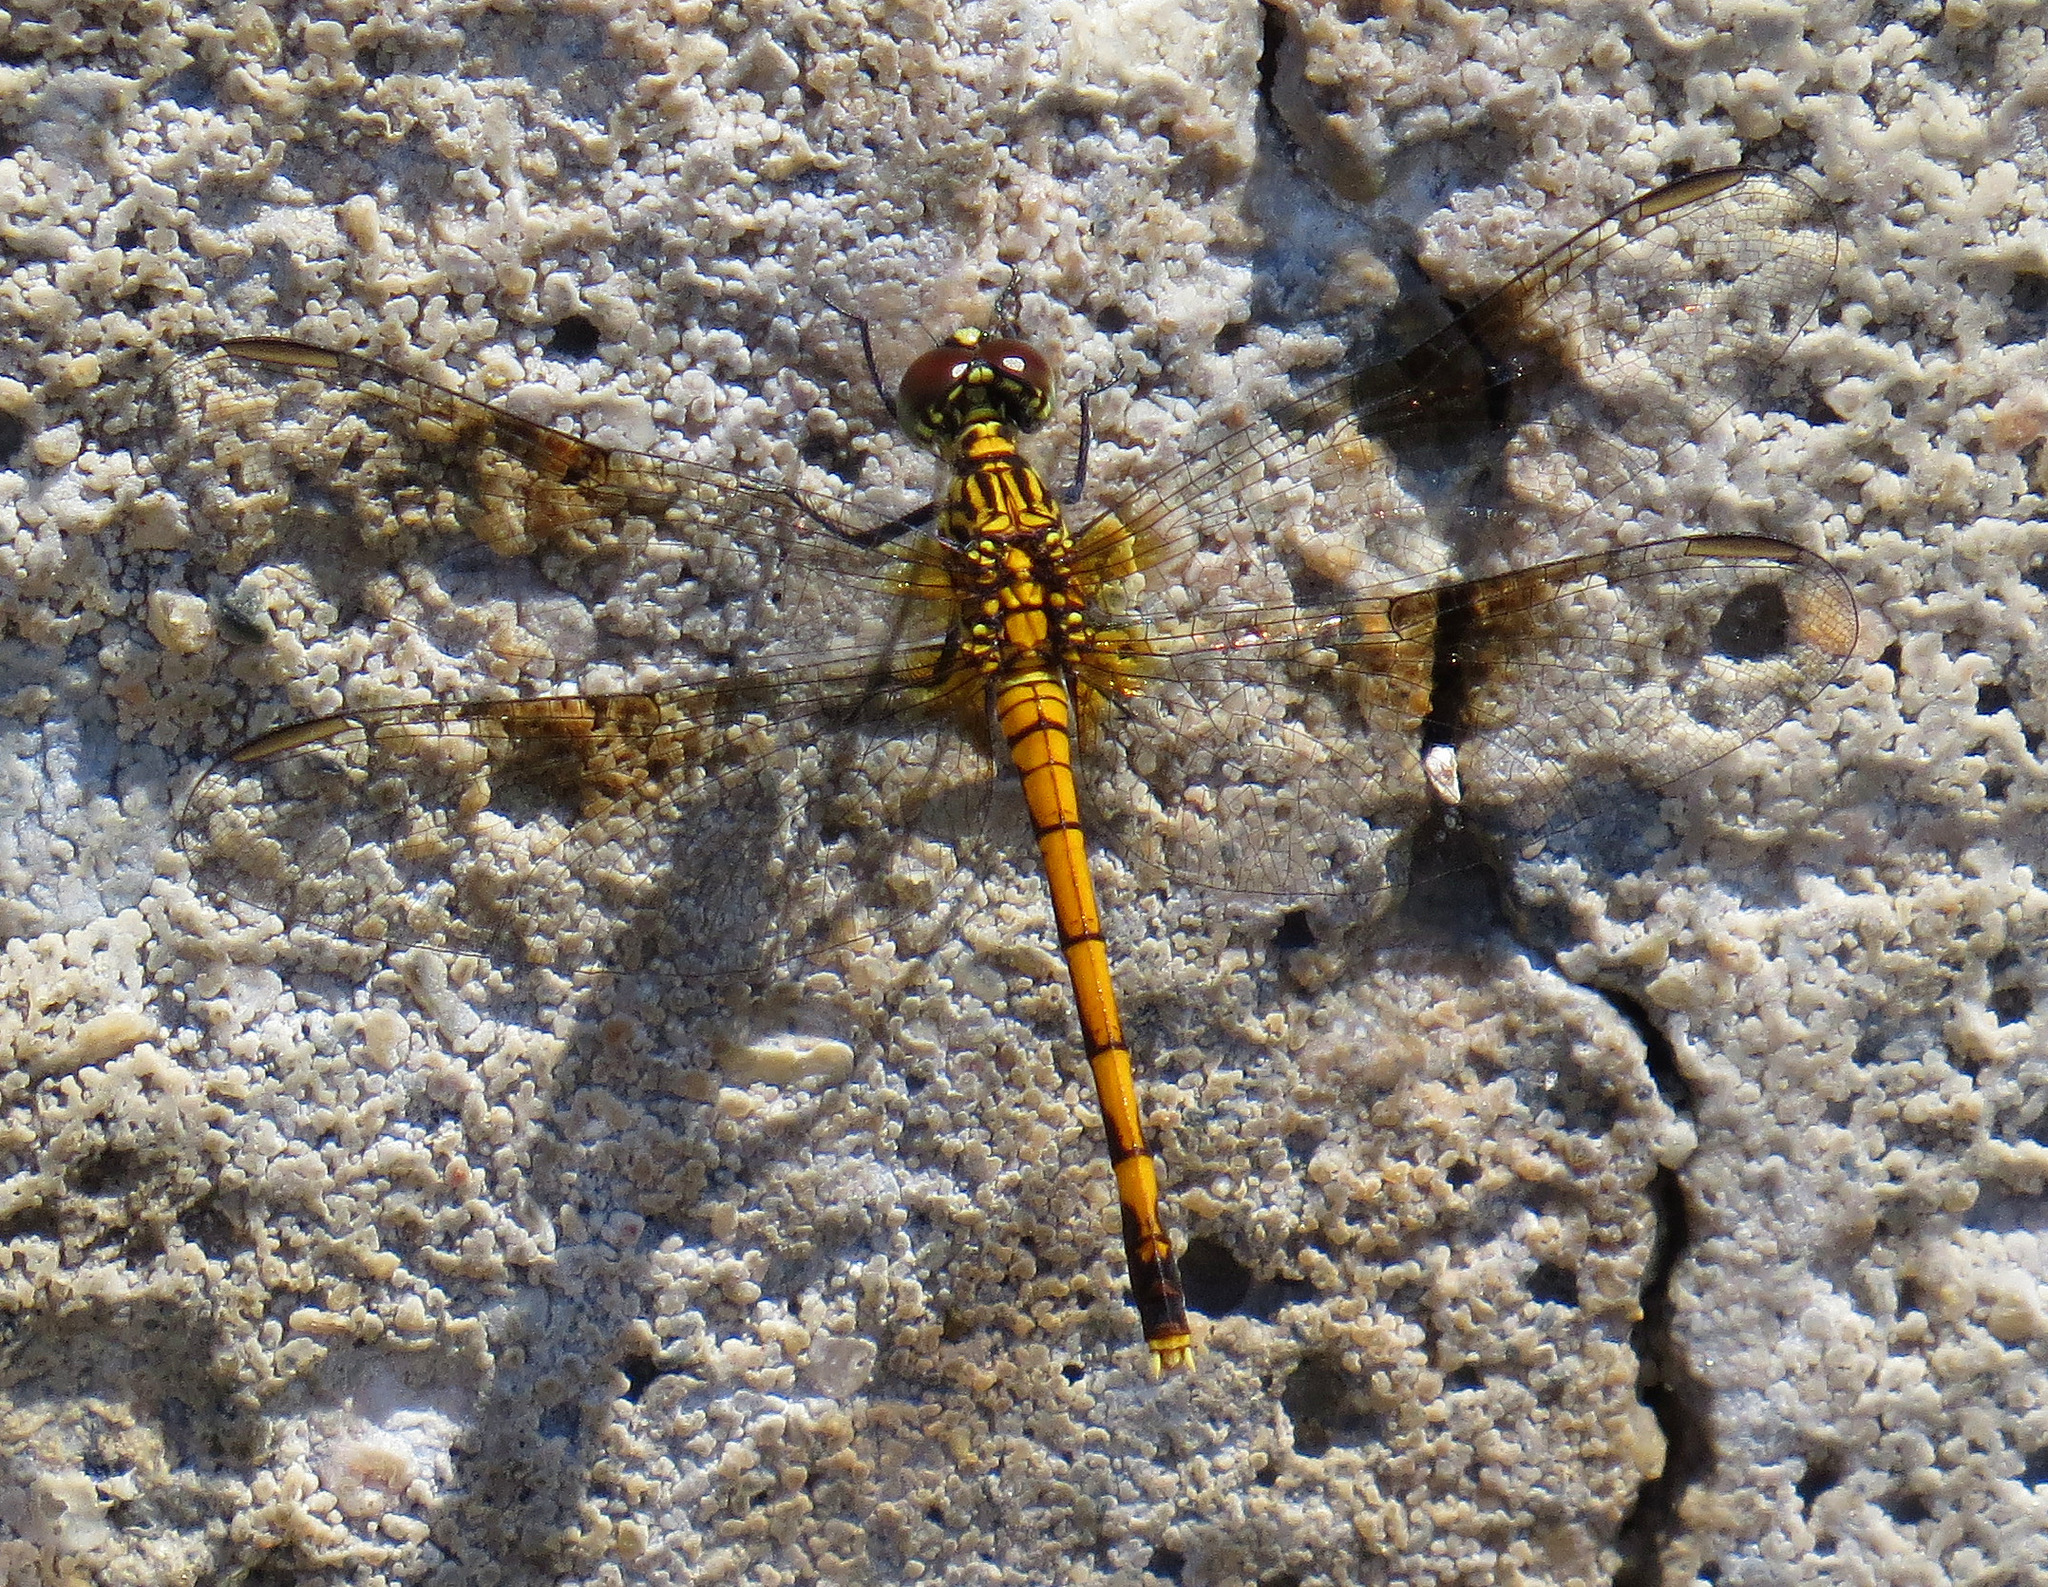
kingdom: Animalia
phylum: Arthropoda
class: Insecta
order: Odonata
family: Libellulidae
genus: Erythrodiplax
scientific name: Erythrodiplax berenice
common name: Seaside dragonlet
